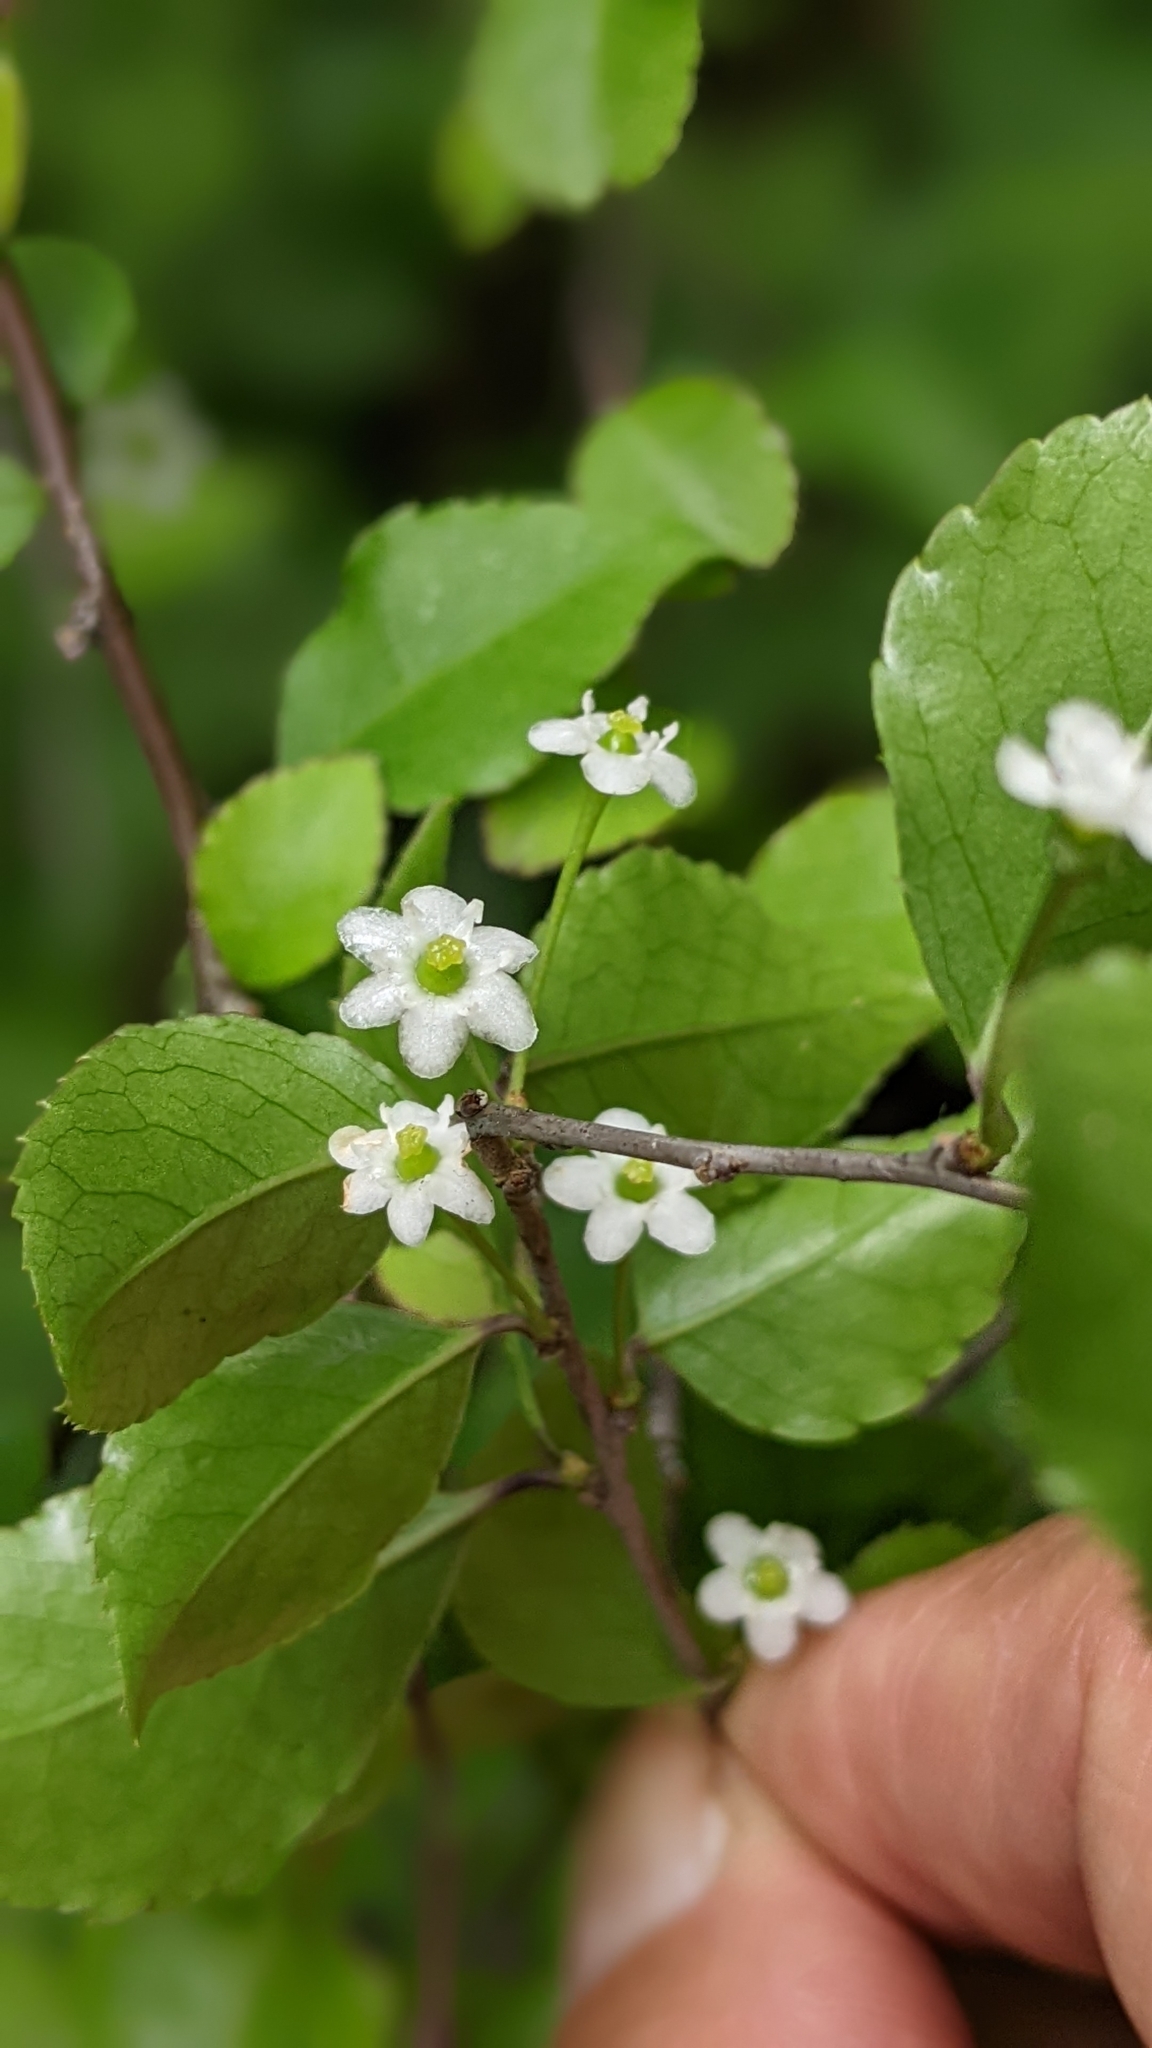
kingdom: Plantae
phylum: Tracheophyta
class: Magnoliopsida
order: Aquifoliales
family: Aquifoliaceae
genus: Ilex
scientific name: Ilex asprella
